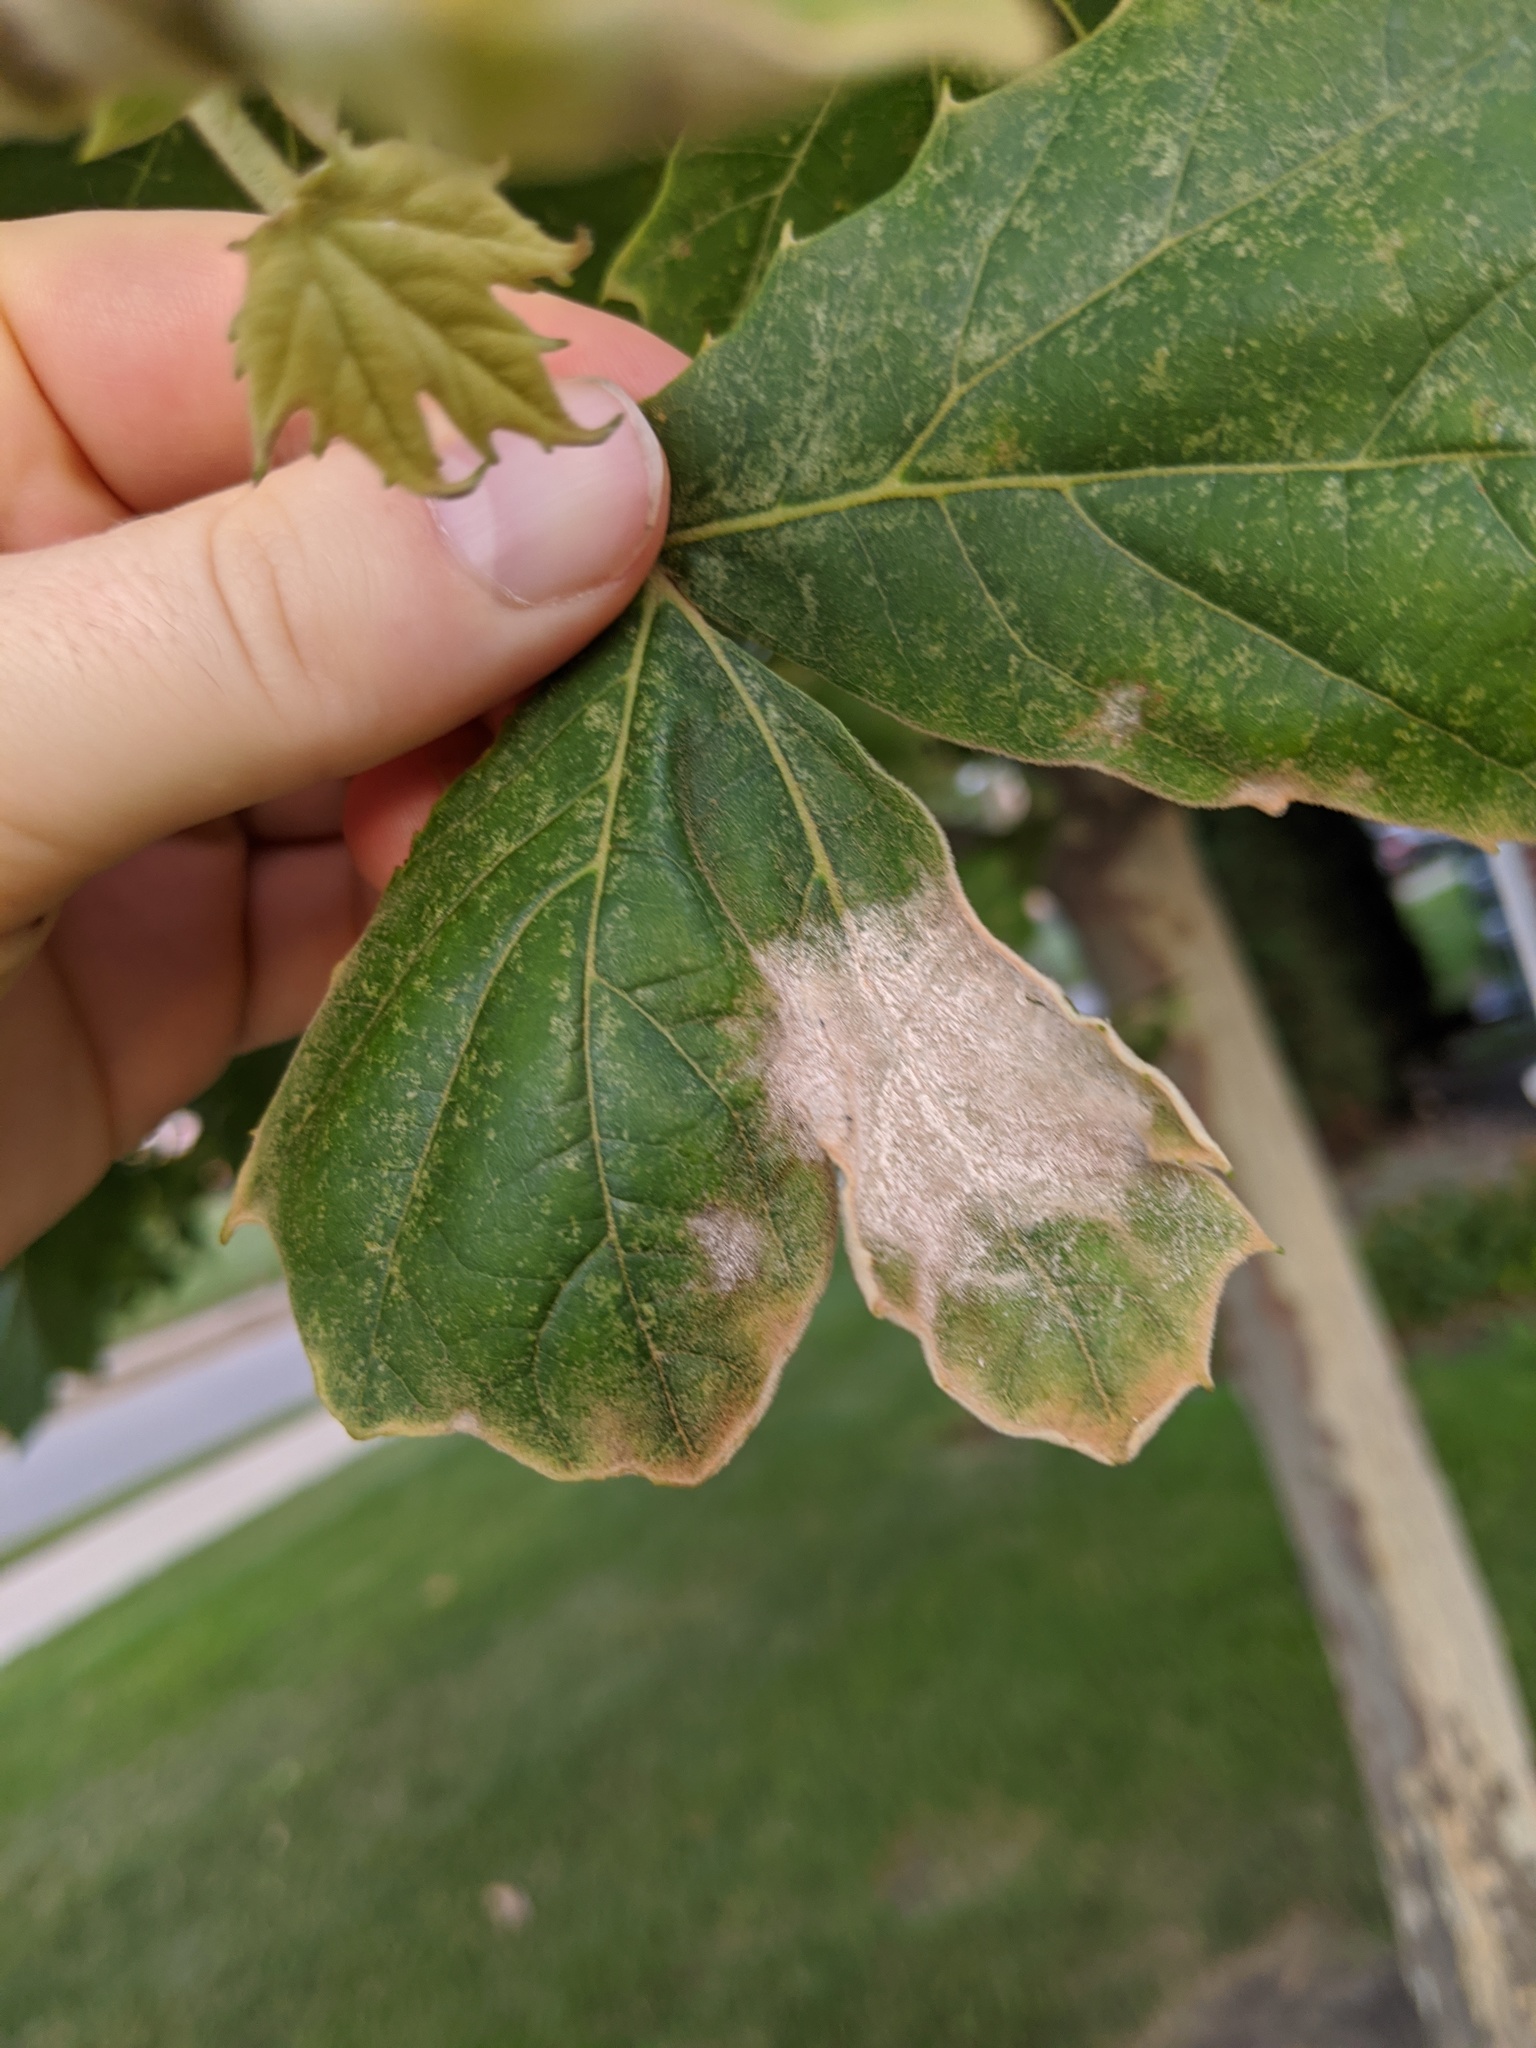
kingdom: Fungi
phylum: Ascomycota
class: Leotiomycetes
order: Helotiales
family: Erysiphaceae
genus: Erysiphe
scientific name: Erysiphe platani
